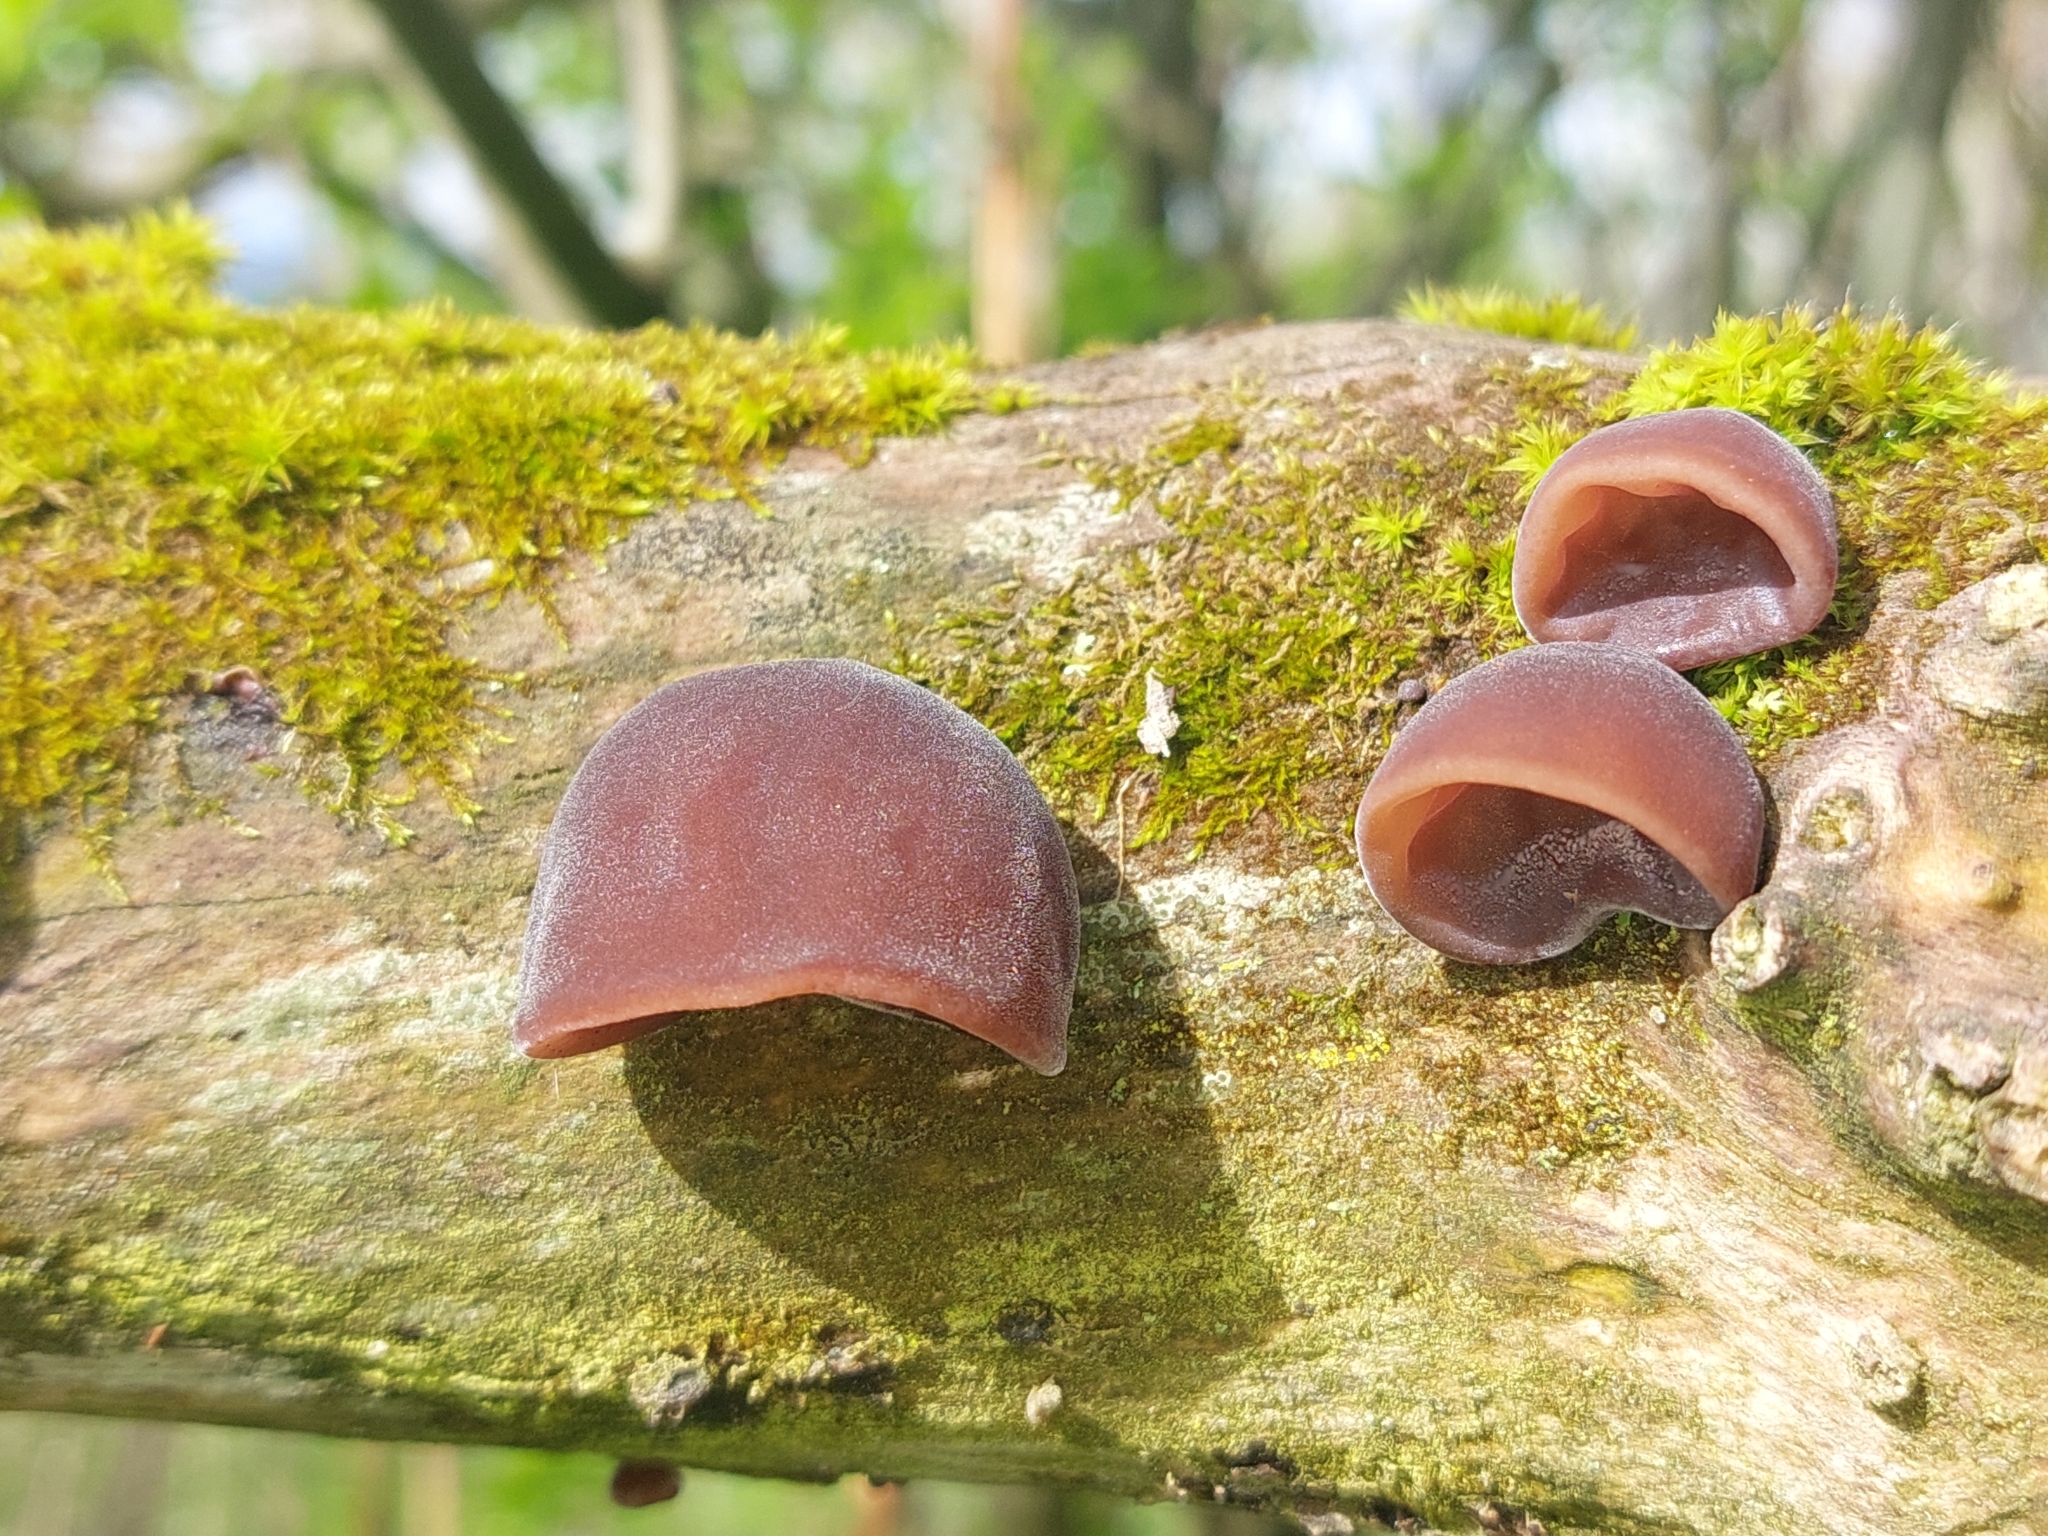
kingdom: Fungi
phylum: Basidiomycota
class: Agaricomycetes
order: Auriculariales
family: Auriculariaceae
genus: Auricularia
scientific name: Auricularia auricula-judae
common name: Jelly ear
